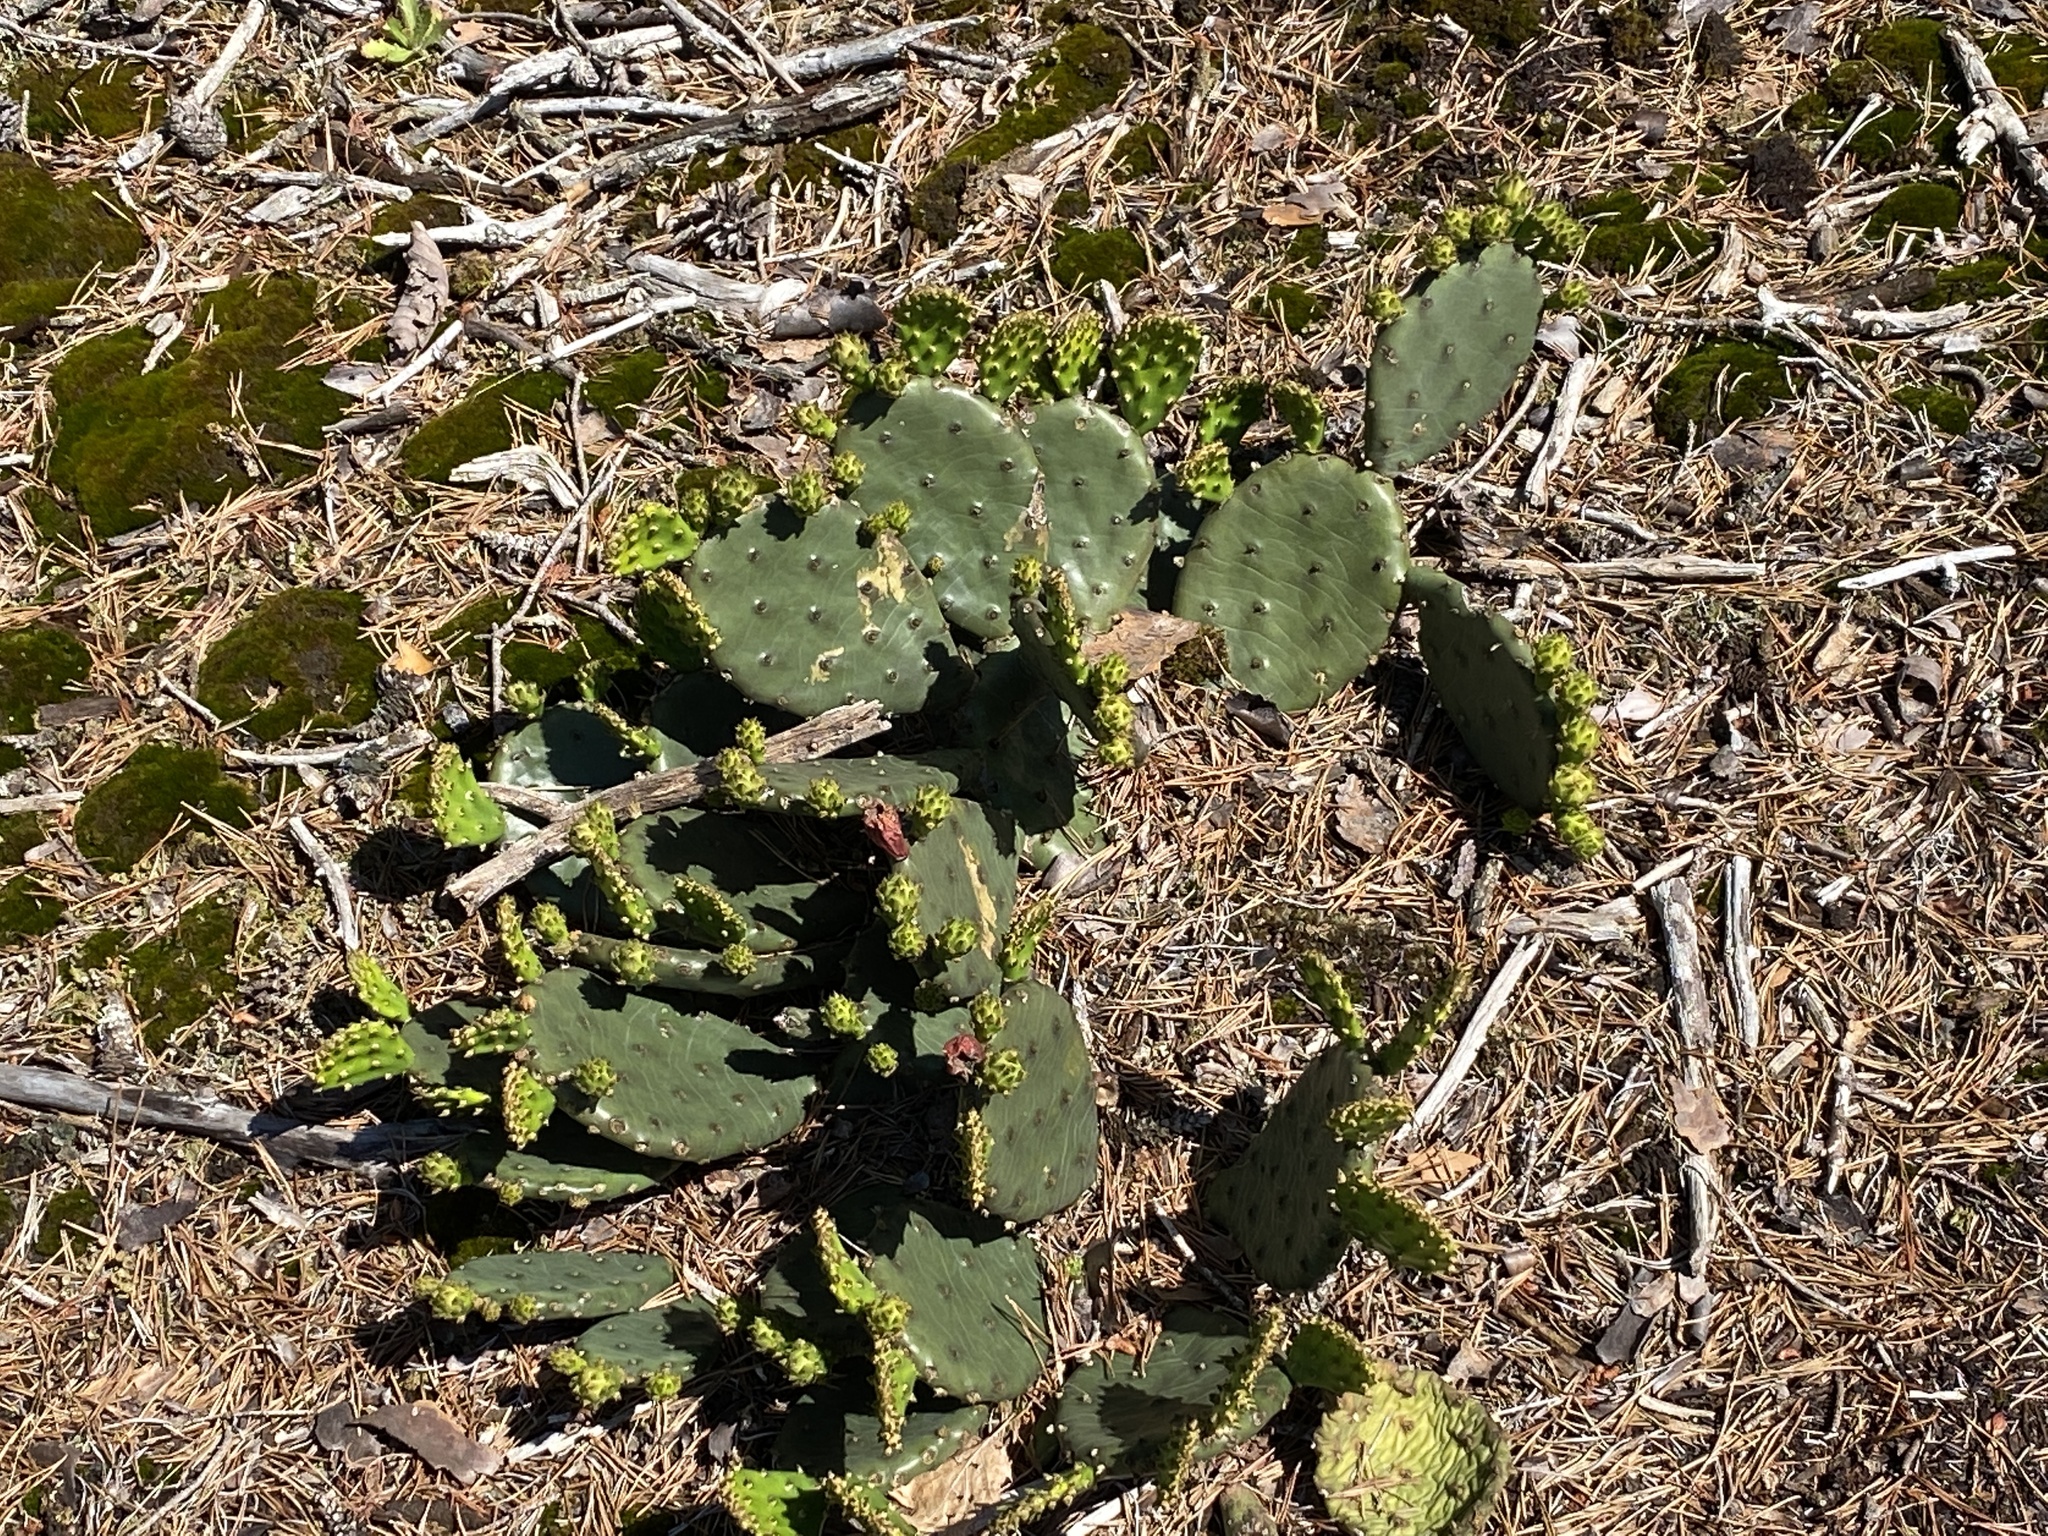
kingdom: Plantae
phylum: Tracheophyta
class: Magnoliopsida
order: Caryophyllales
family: Cactaceae
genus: Opuntia
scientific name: Opuntia mesacantha
